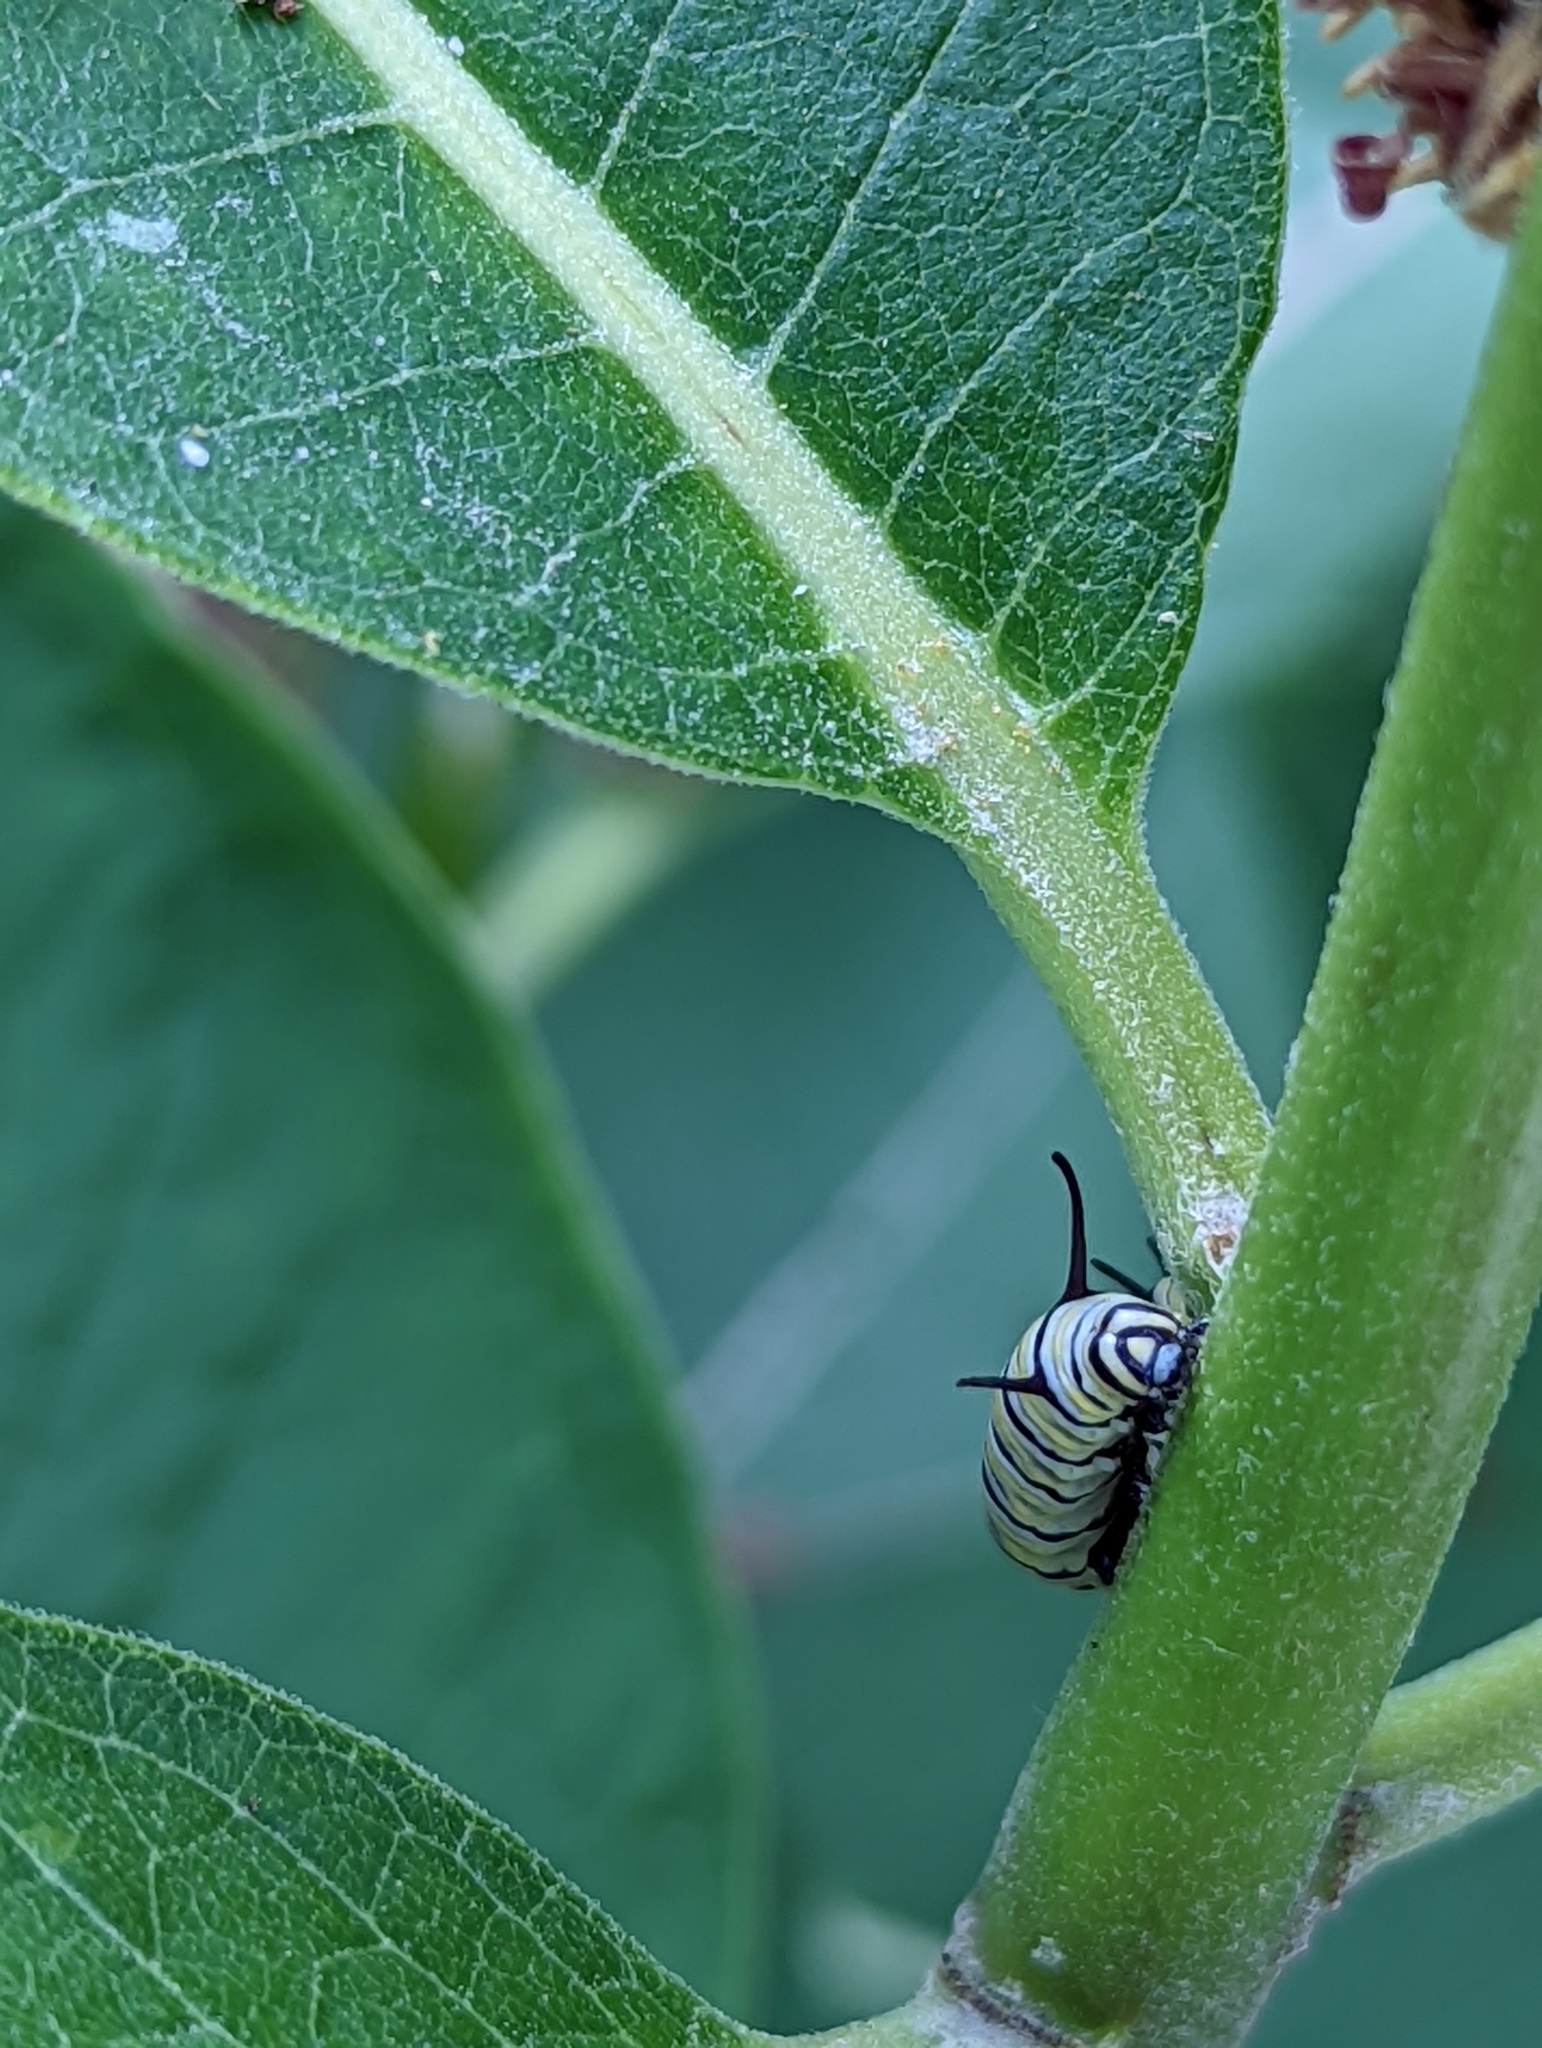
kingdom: Animalia
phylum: Arthropoda
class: Insecta
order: Lepidoptera
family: Nymphalidae
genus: Danaus
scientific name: Danaus plexippus
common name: Monarch
